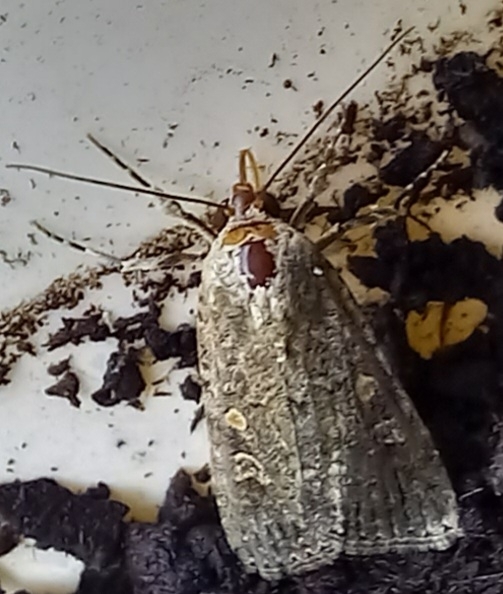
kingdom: Animalia
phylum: Arthropoda
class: Insecta
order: Lepidoptera
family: Noctuidae
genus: Spodoptera
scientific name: Spodoptera exigua
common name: Beet armyworm
